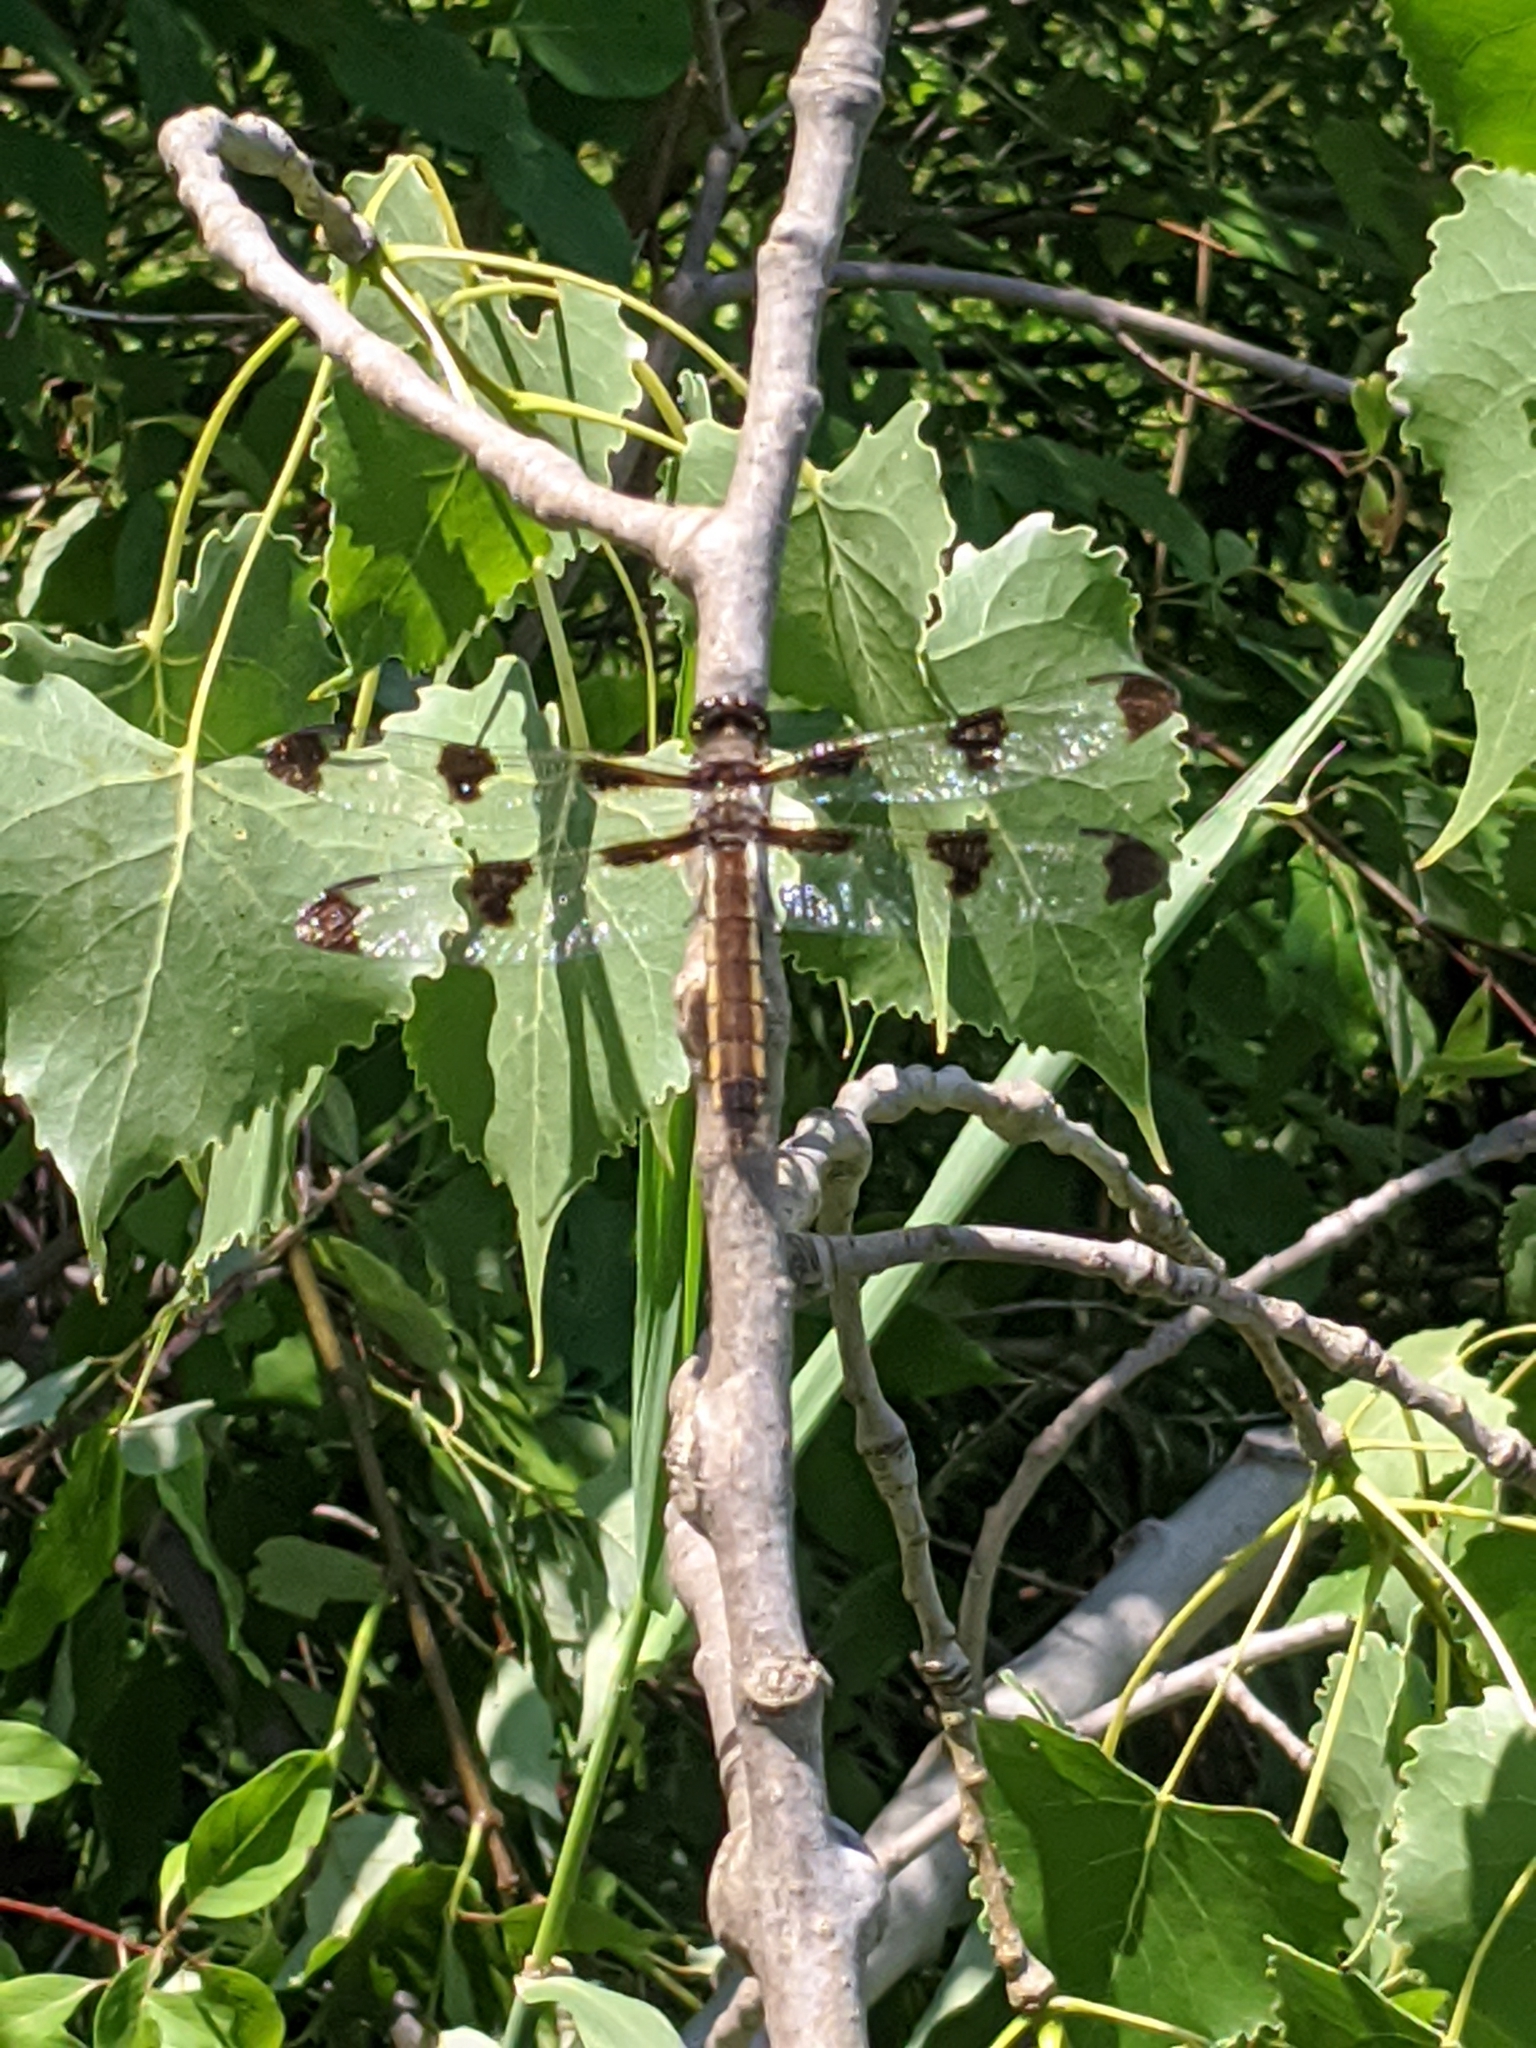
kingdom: Animalia
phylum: Arthropoda
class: Insecta
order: Odonata
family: Libellulidae
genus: Libellula
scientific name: Libellula pulchella
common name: Twelve-spotted skimmer
